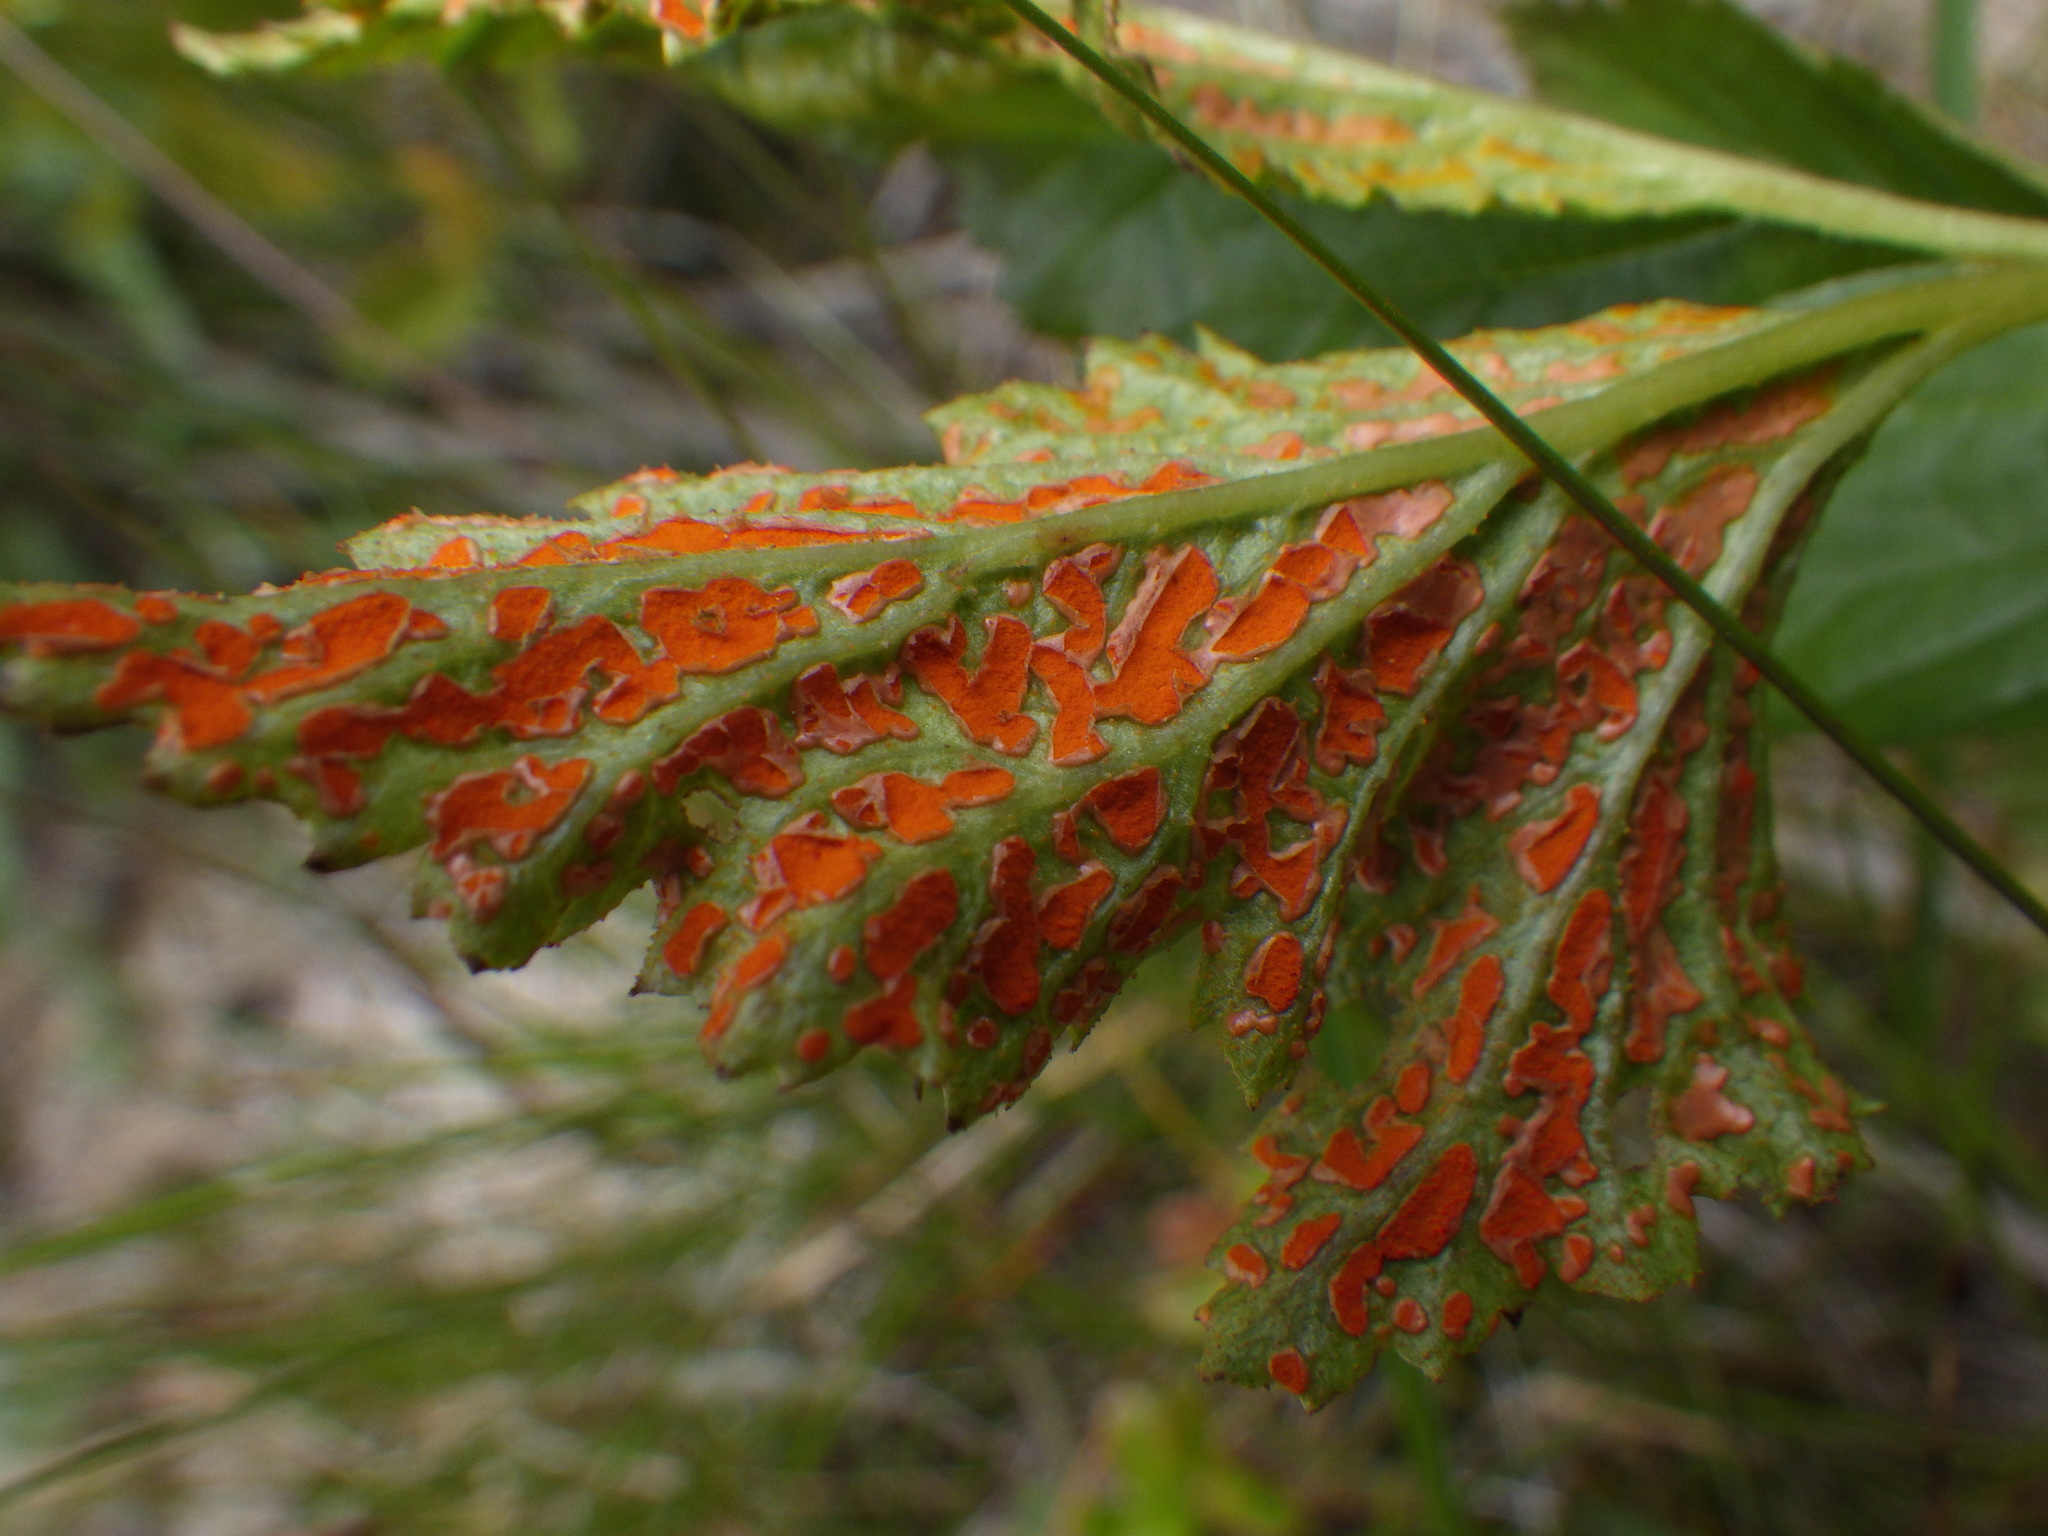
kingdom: Fungi
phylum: Basidiomycota
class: Pucciniomycetes
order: Pucciniales
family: Phragmidiaceae
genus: Arthuriomyces
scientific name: Arthuriomyces peckianus
